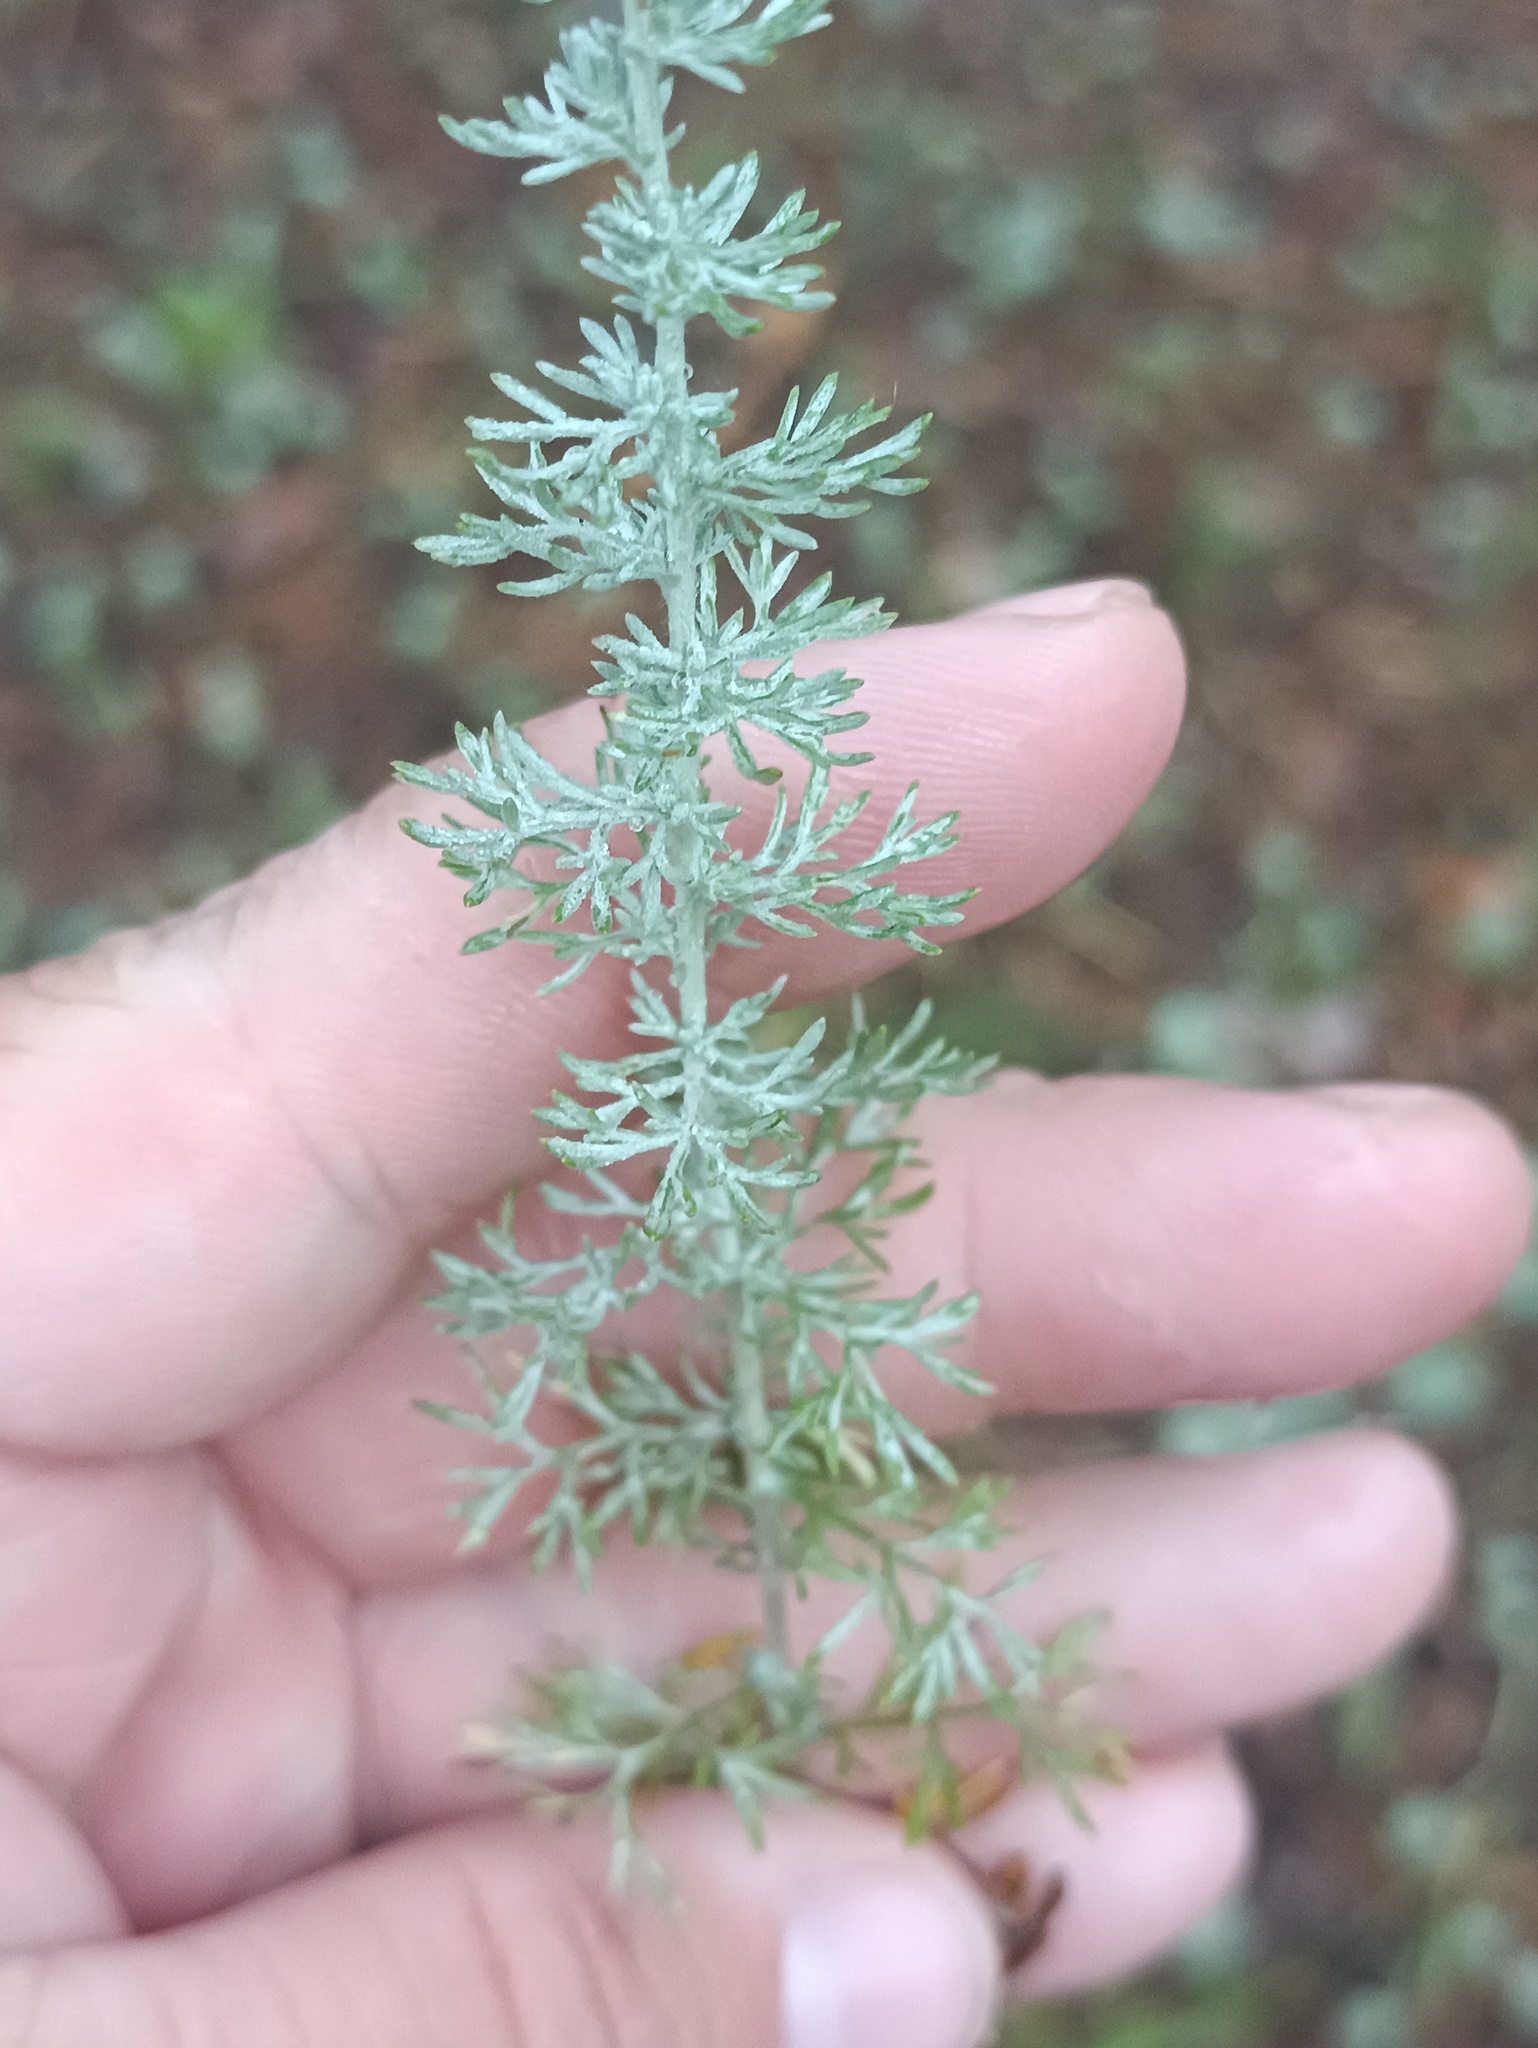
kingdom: Plantae
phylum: Tracheophyta
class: Magnoliopsida
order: Asterales
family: Asteraceae
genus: Artemisia
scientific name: Artemisia austriaca
